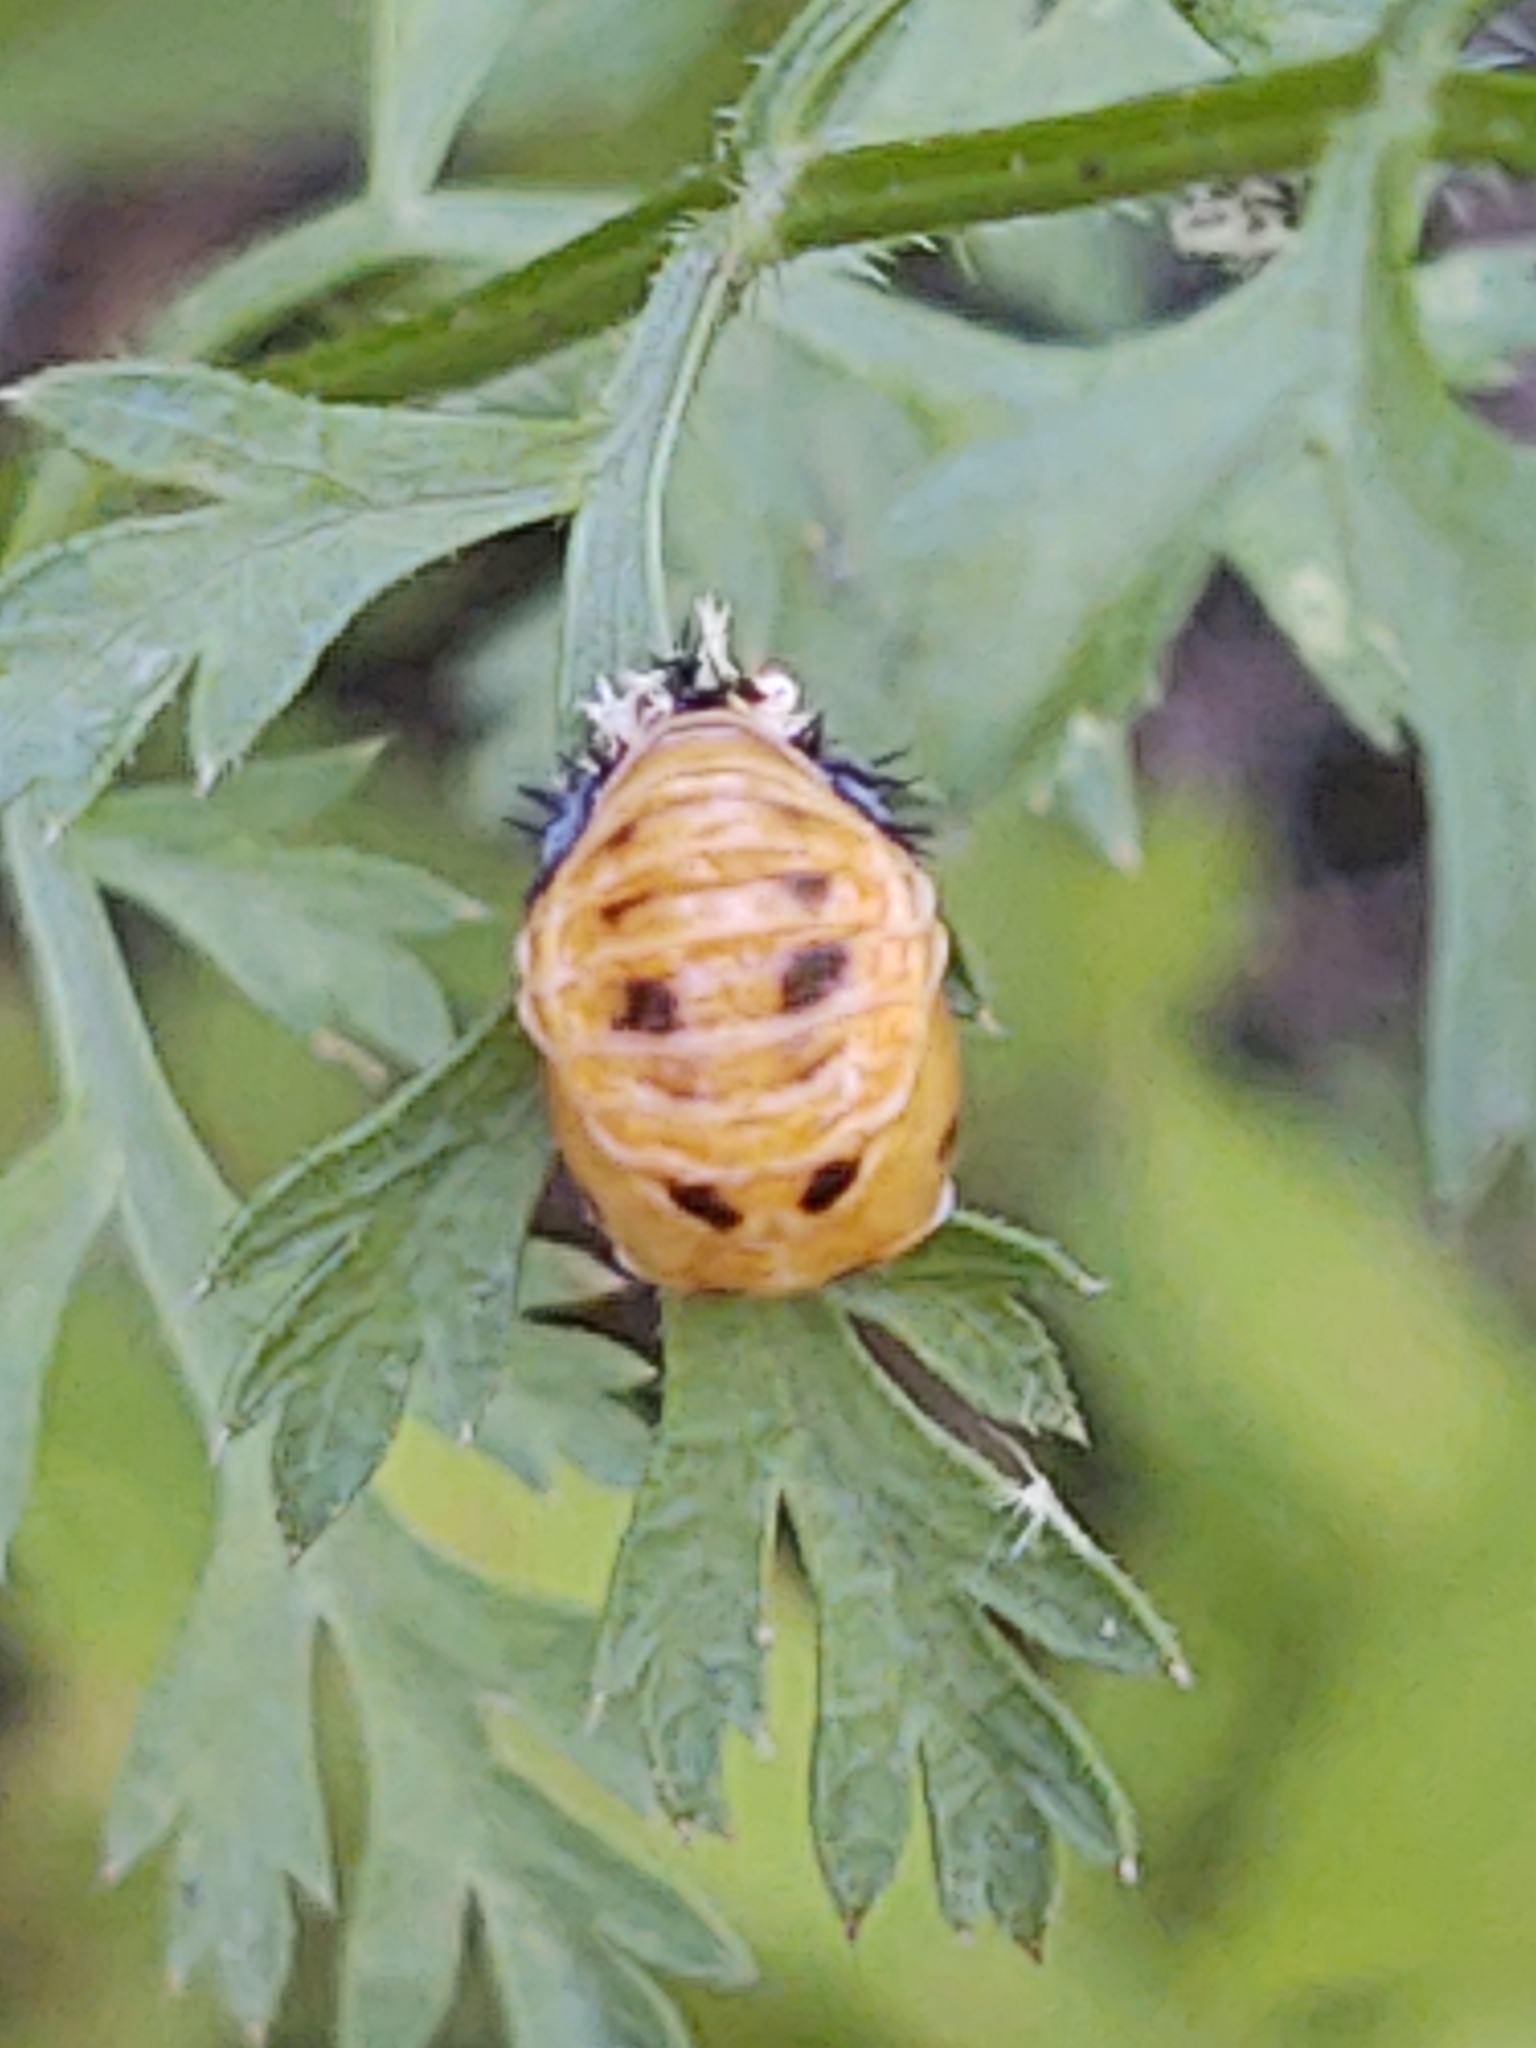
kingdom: Animalia
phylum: Arthropoda
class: Insecta
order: Coleoptera
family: Coccinellidae
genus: Harmonia
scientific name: Harmonia axyridis
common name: Harlequin ladybird
